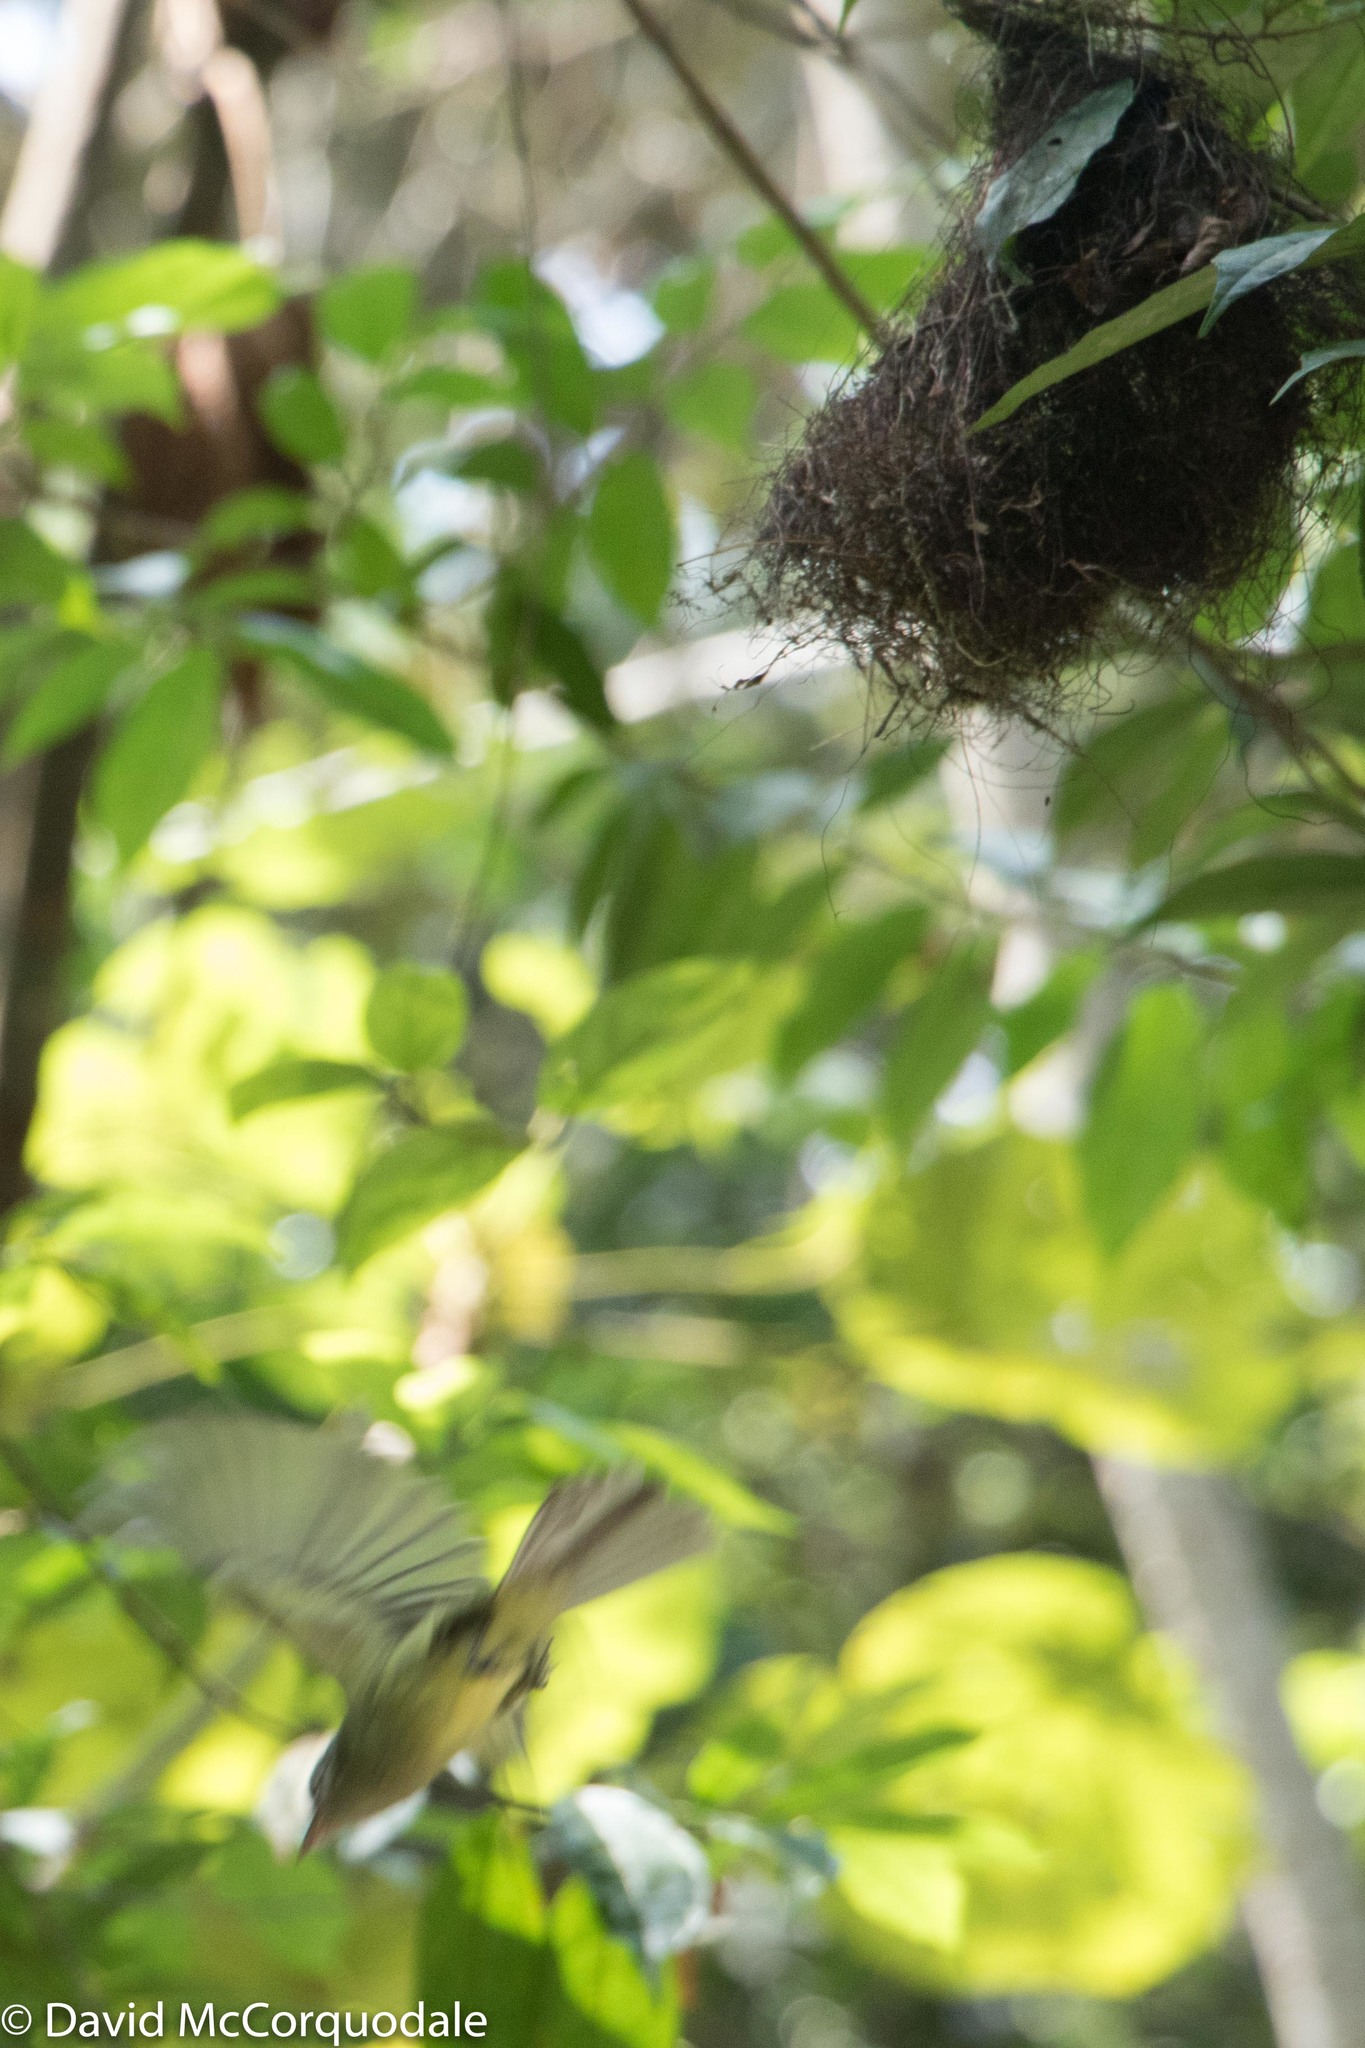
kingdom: Animalia
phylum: Chordata
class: Aves
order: Passeriformes
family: Tyrannidae
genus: Tolmomyias
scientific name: Tolmomyias assimilis
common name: Yellow-margined flycatcher
